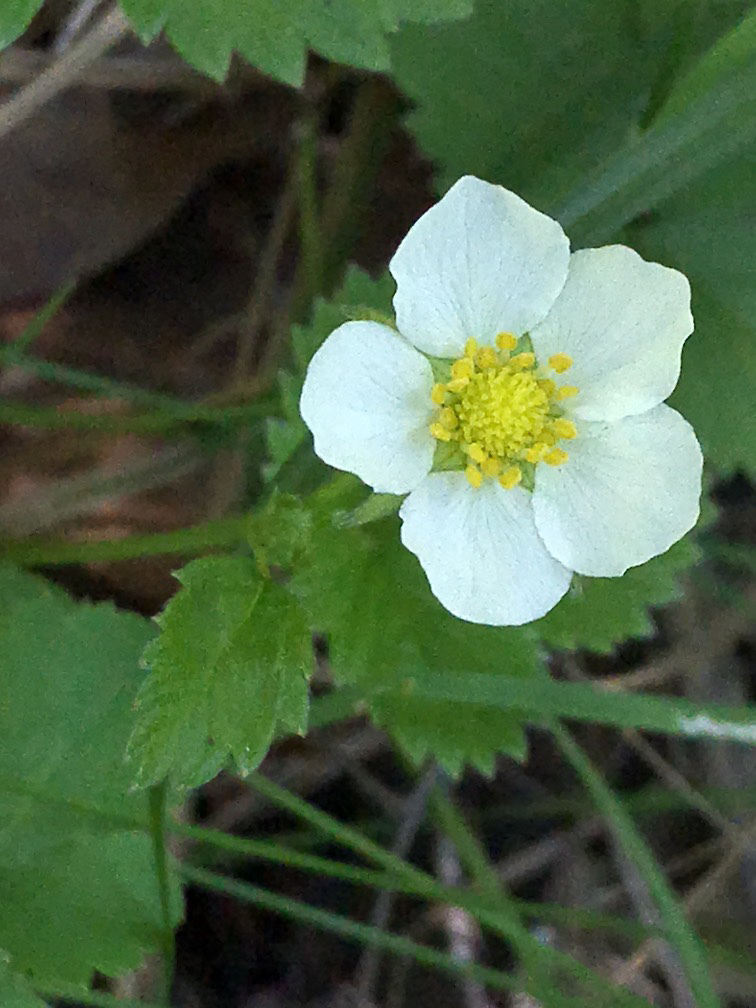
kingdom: Plantae
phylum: Tracheophyta
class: Magnoliopsida
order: Rosales
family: Rosaceae
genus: Fragaria
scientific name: Fragaria vesca
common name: Wild strawberry
